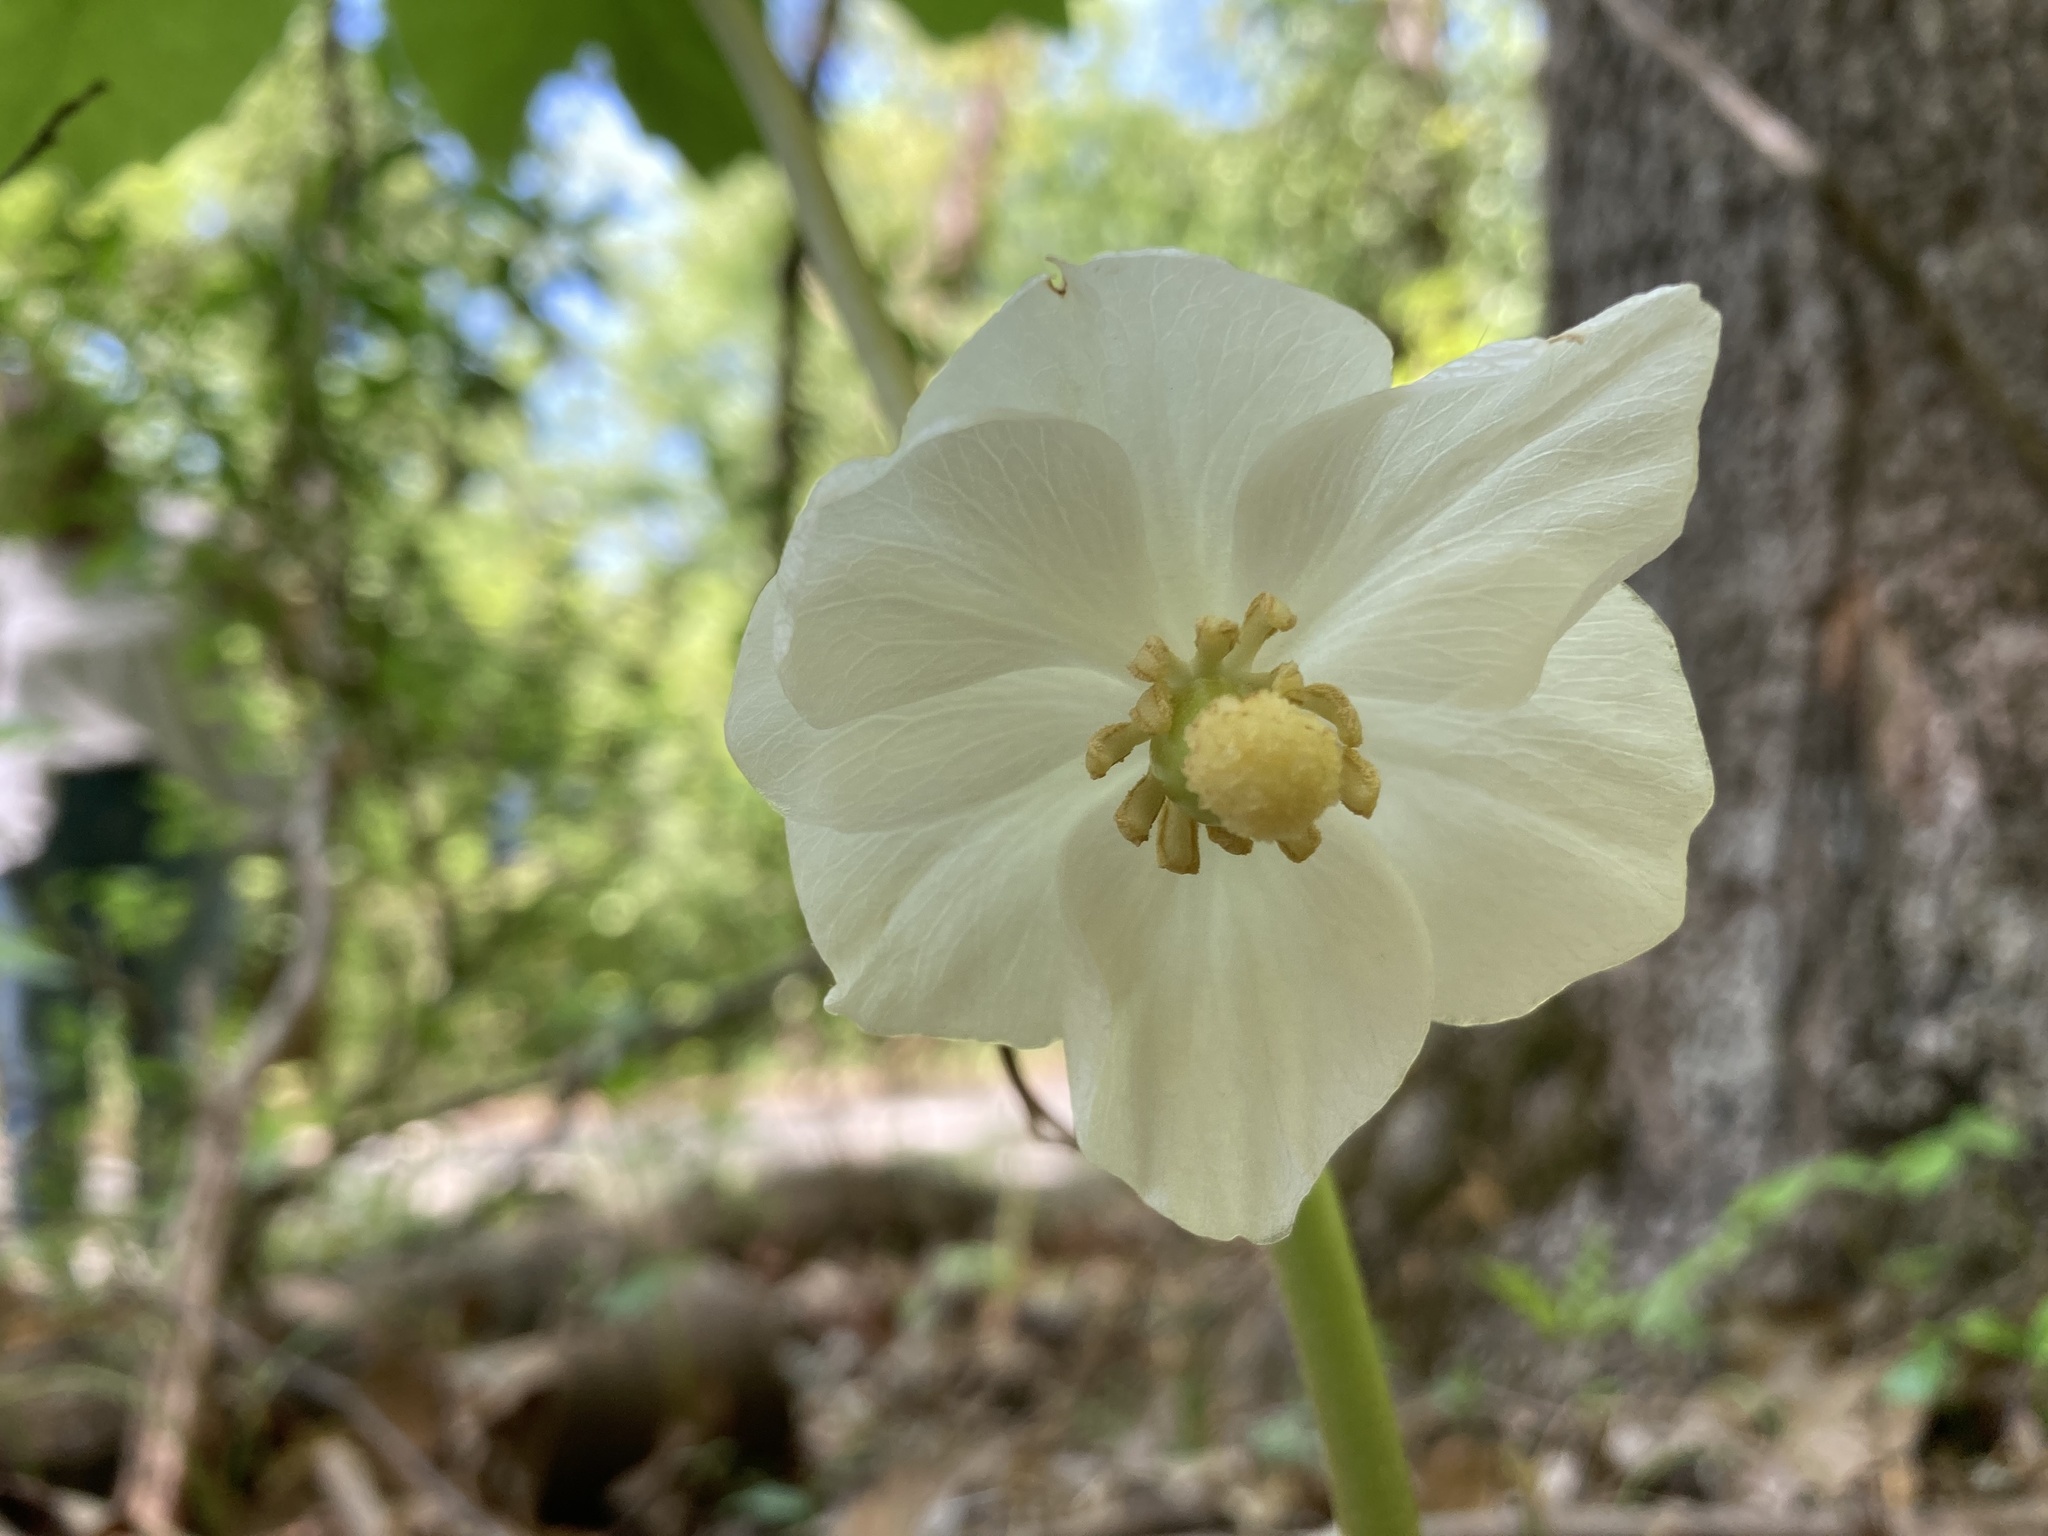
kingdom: Plantae
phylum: Tracheophyta
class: Magnoliopsida
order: Ranunculales
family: Berberidaceae
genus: Podophyllum
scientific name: Podophyllum peltatum
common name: Wild mandrake
